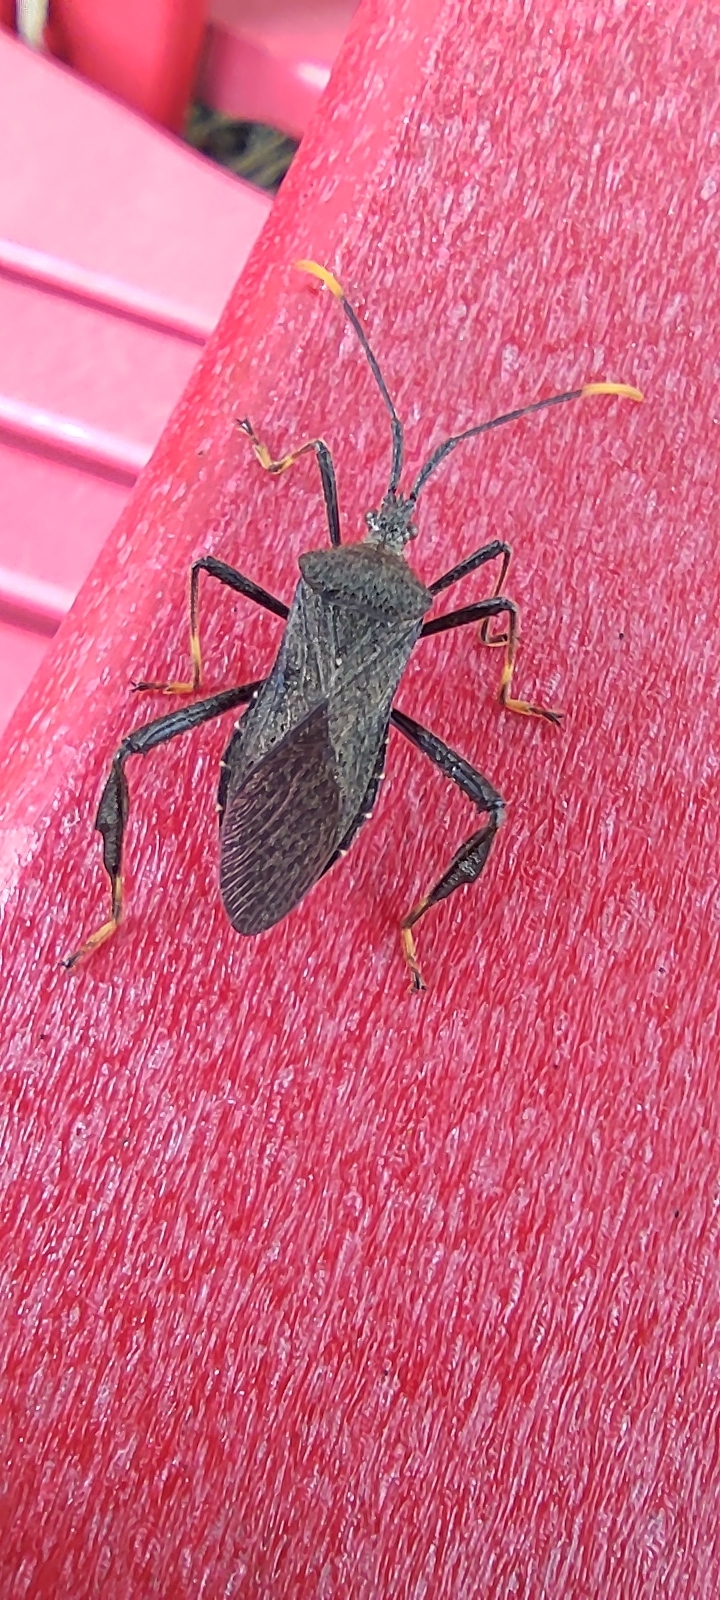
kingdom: Animalia
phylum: Arthropoda
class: Insecta
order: Hemiptera
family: Coreidae
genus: Acanthocephala
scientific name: Acanthocephala terminalis
